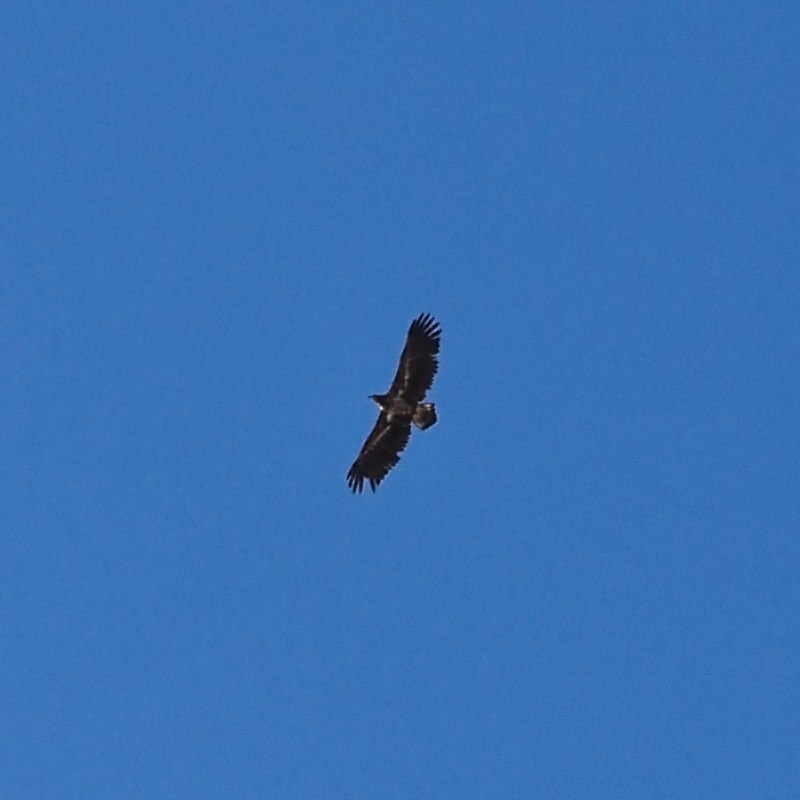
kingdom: Animalia
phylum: Chordata
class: Aves
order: Accipitriformes
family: Accipitridae
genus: Haliaeetus
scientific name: Haliaeetus albicilla
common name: White-tailed eagle
